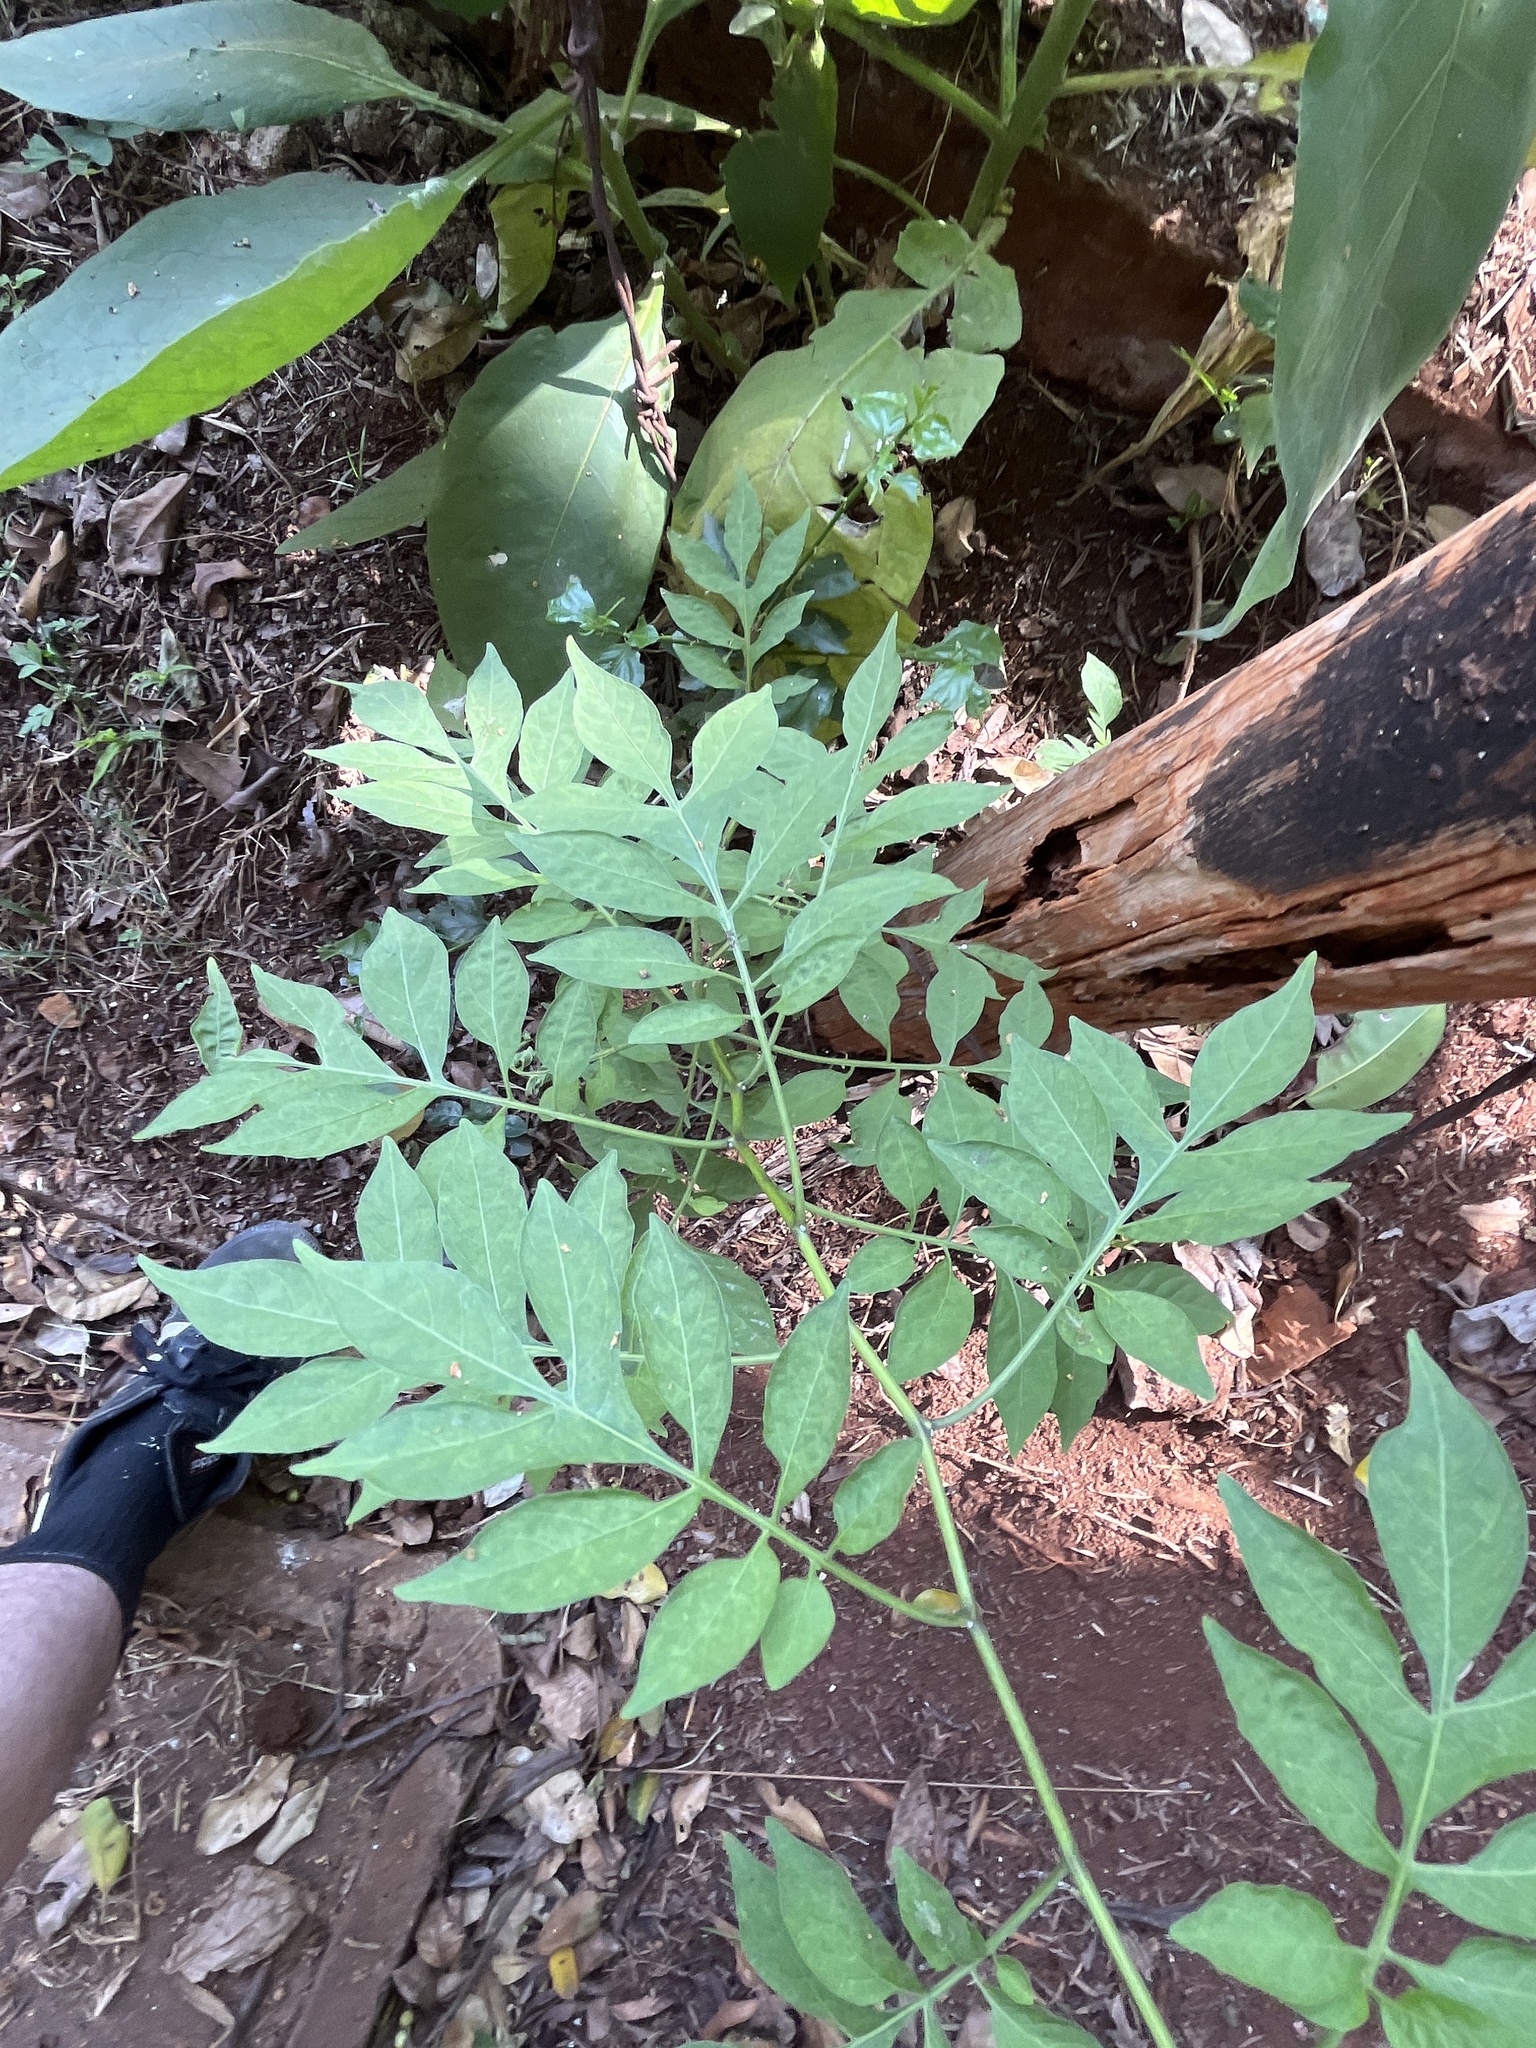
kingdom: Plantae
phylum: Tracheophyta
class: Magnoliopsida
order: Solanales
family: Solanaceae
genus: Solanum
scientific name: Solanum seaforthianum
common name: Brazilian nightshade
